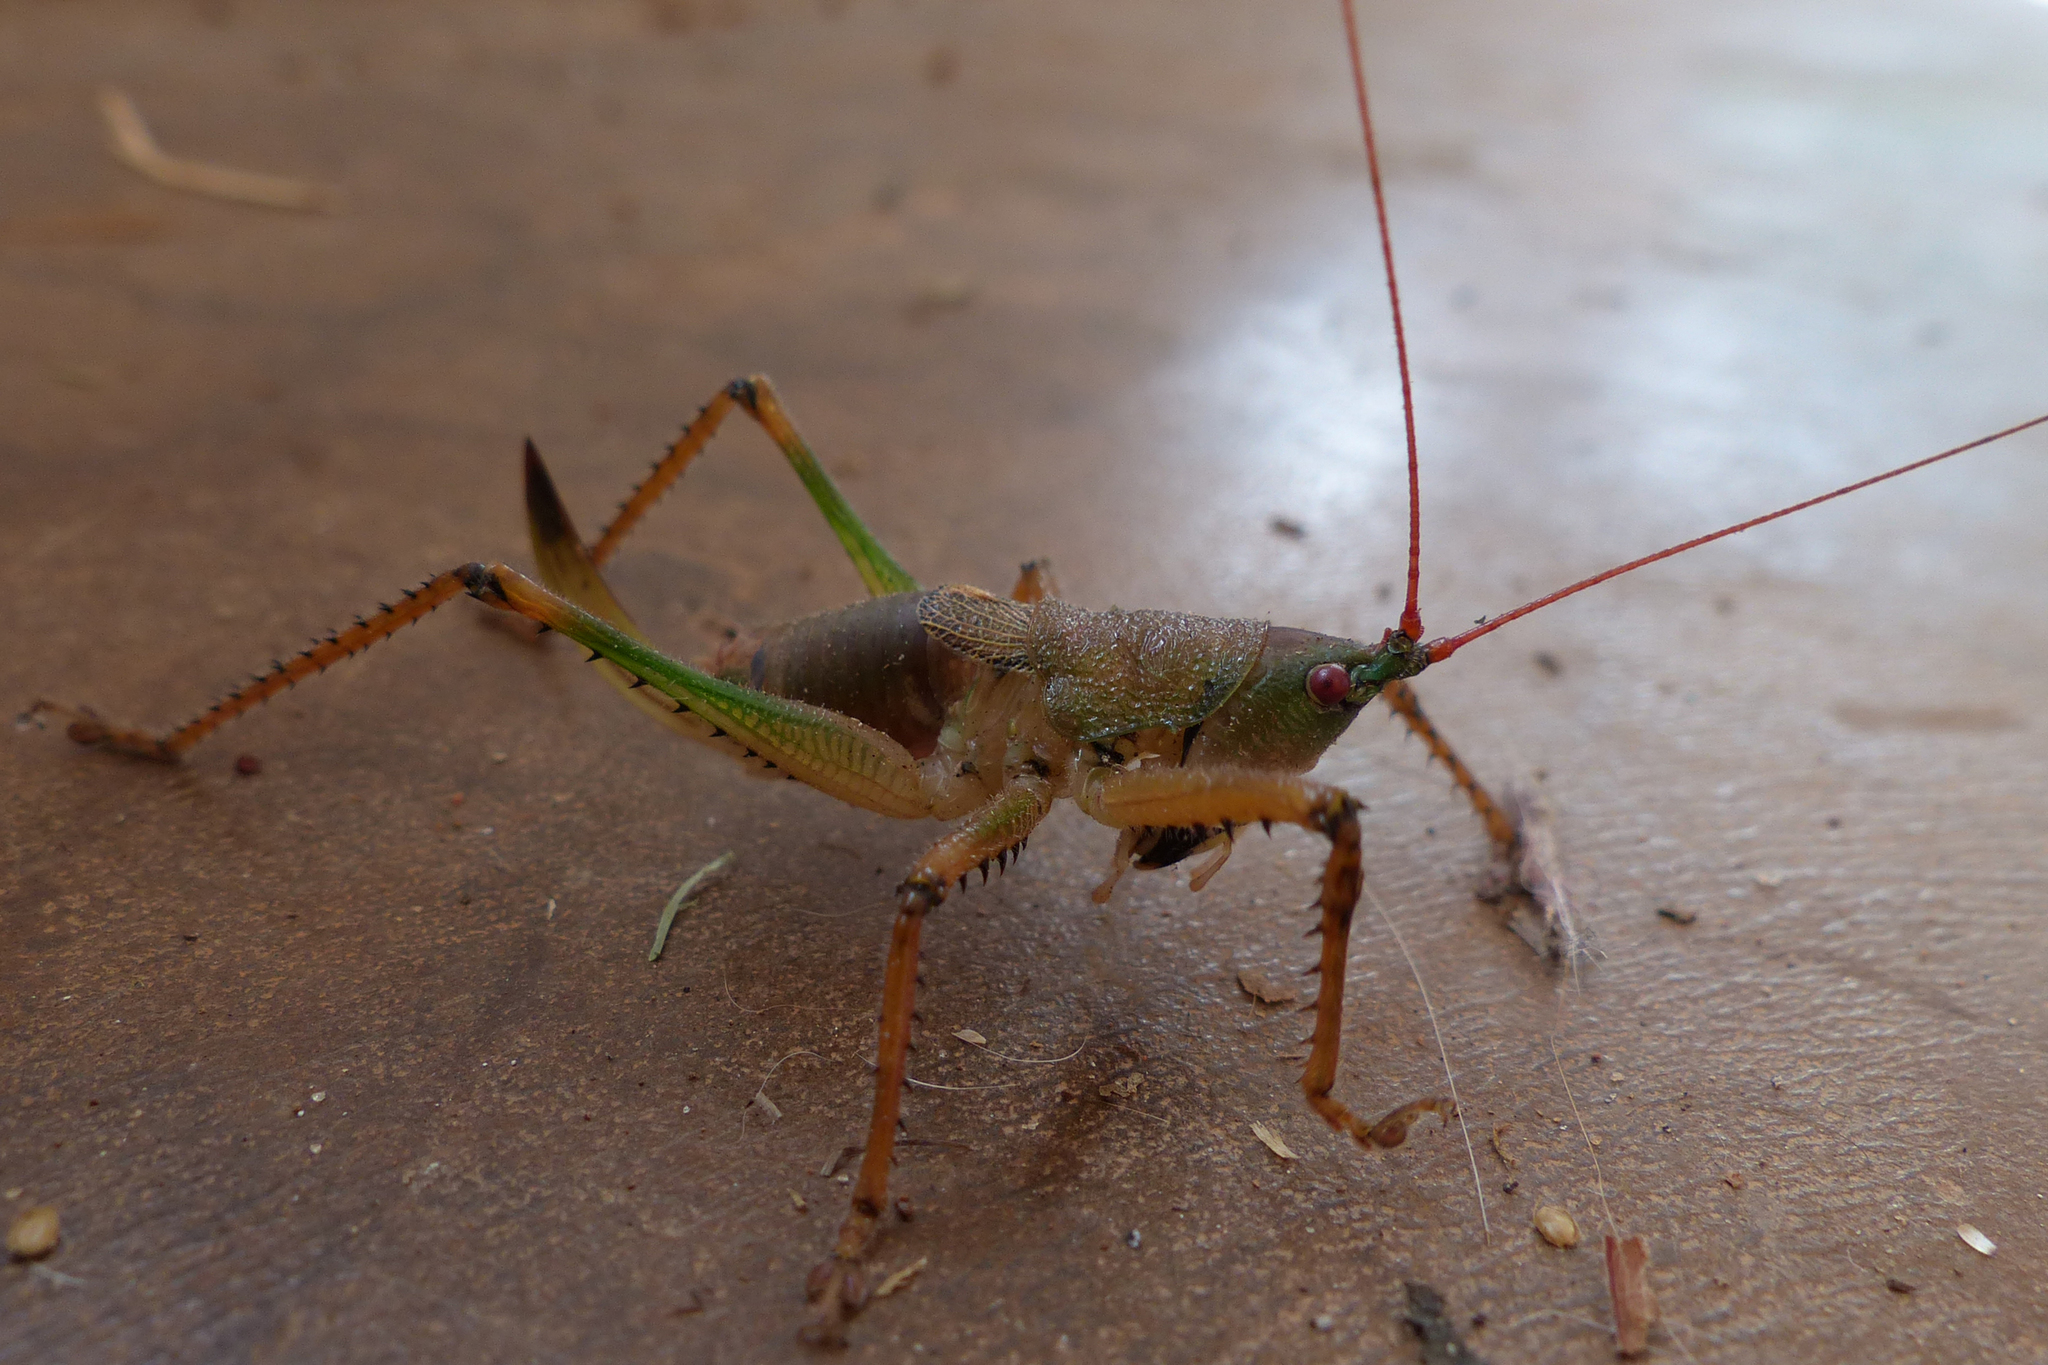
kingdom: Animalia
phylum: Arthropoda
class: Insecta
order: Orthoptera
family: Tettigoniidae
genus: Pseudacrodonta
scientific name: Pseudacrodonta nigrospinosa
